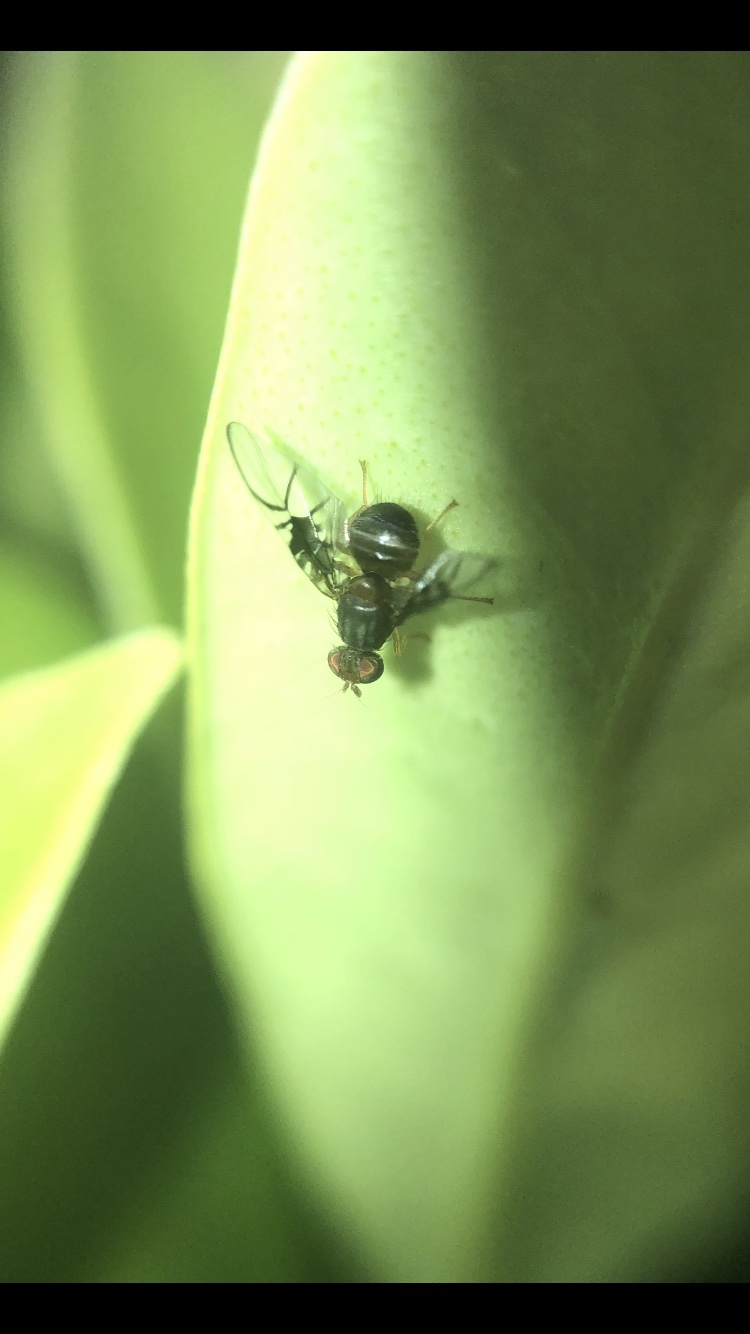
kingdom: Animalia
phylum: Arthropoda
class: Insecta
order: Diptera
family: Tephritidae
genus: Anomoia
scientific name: Anomoia purmunda
